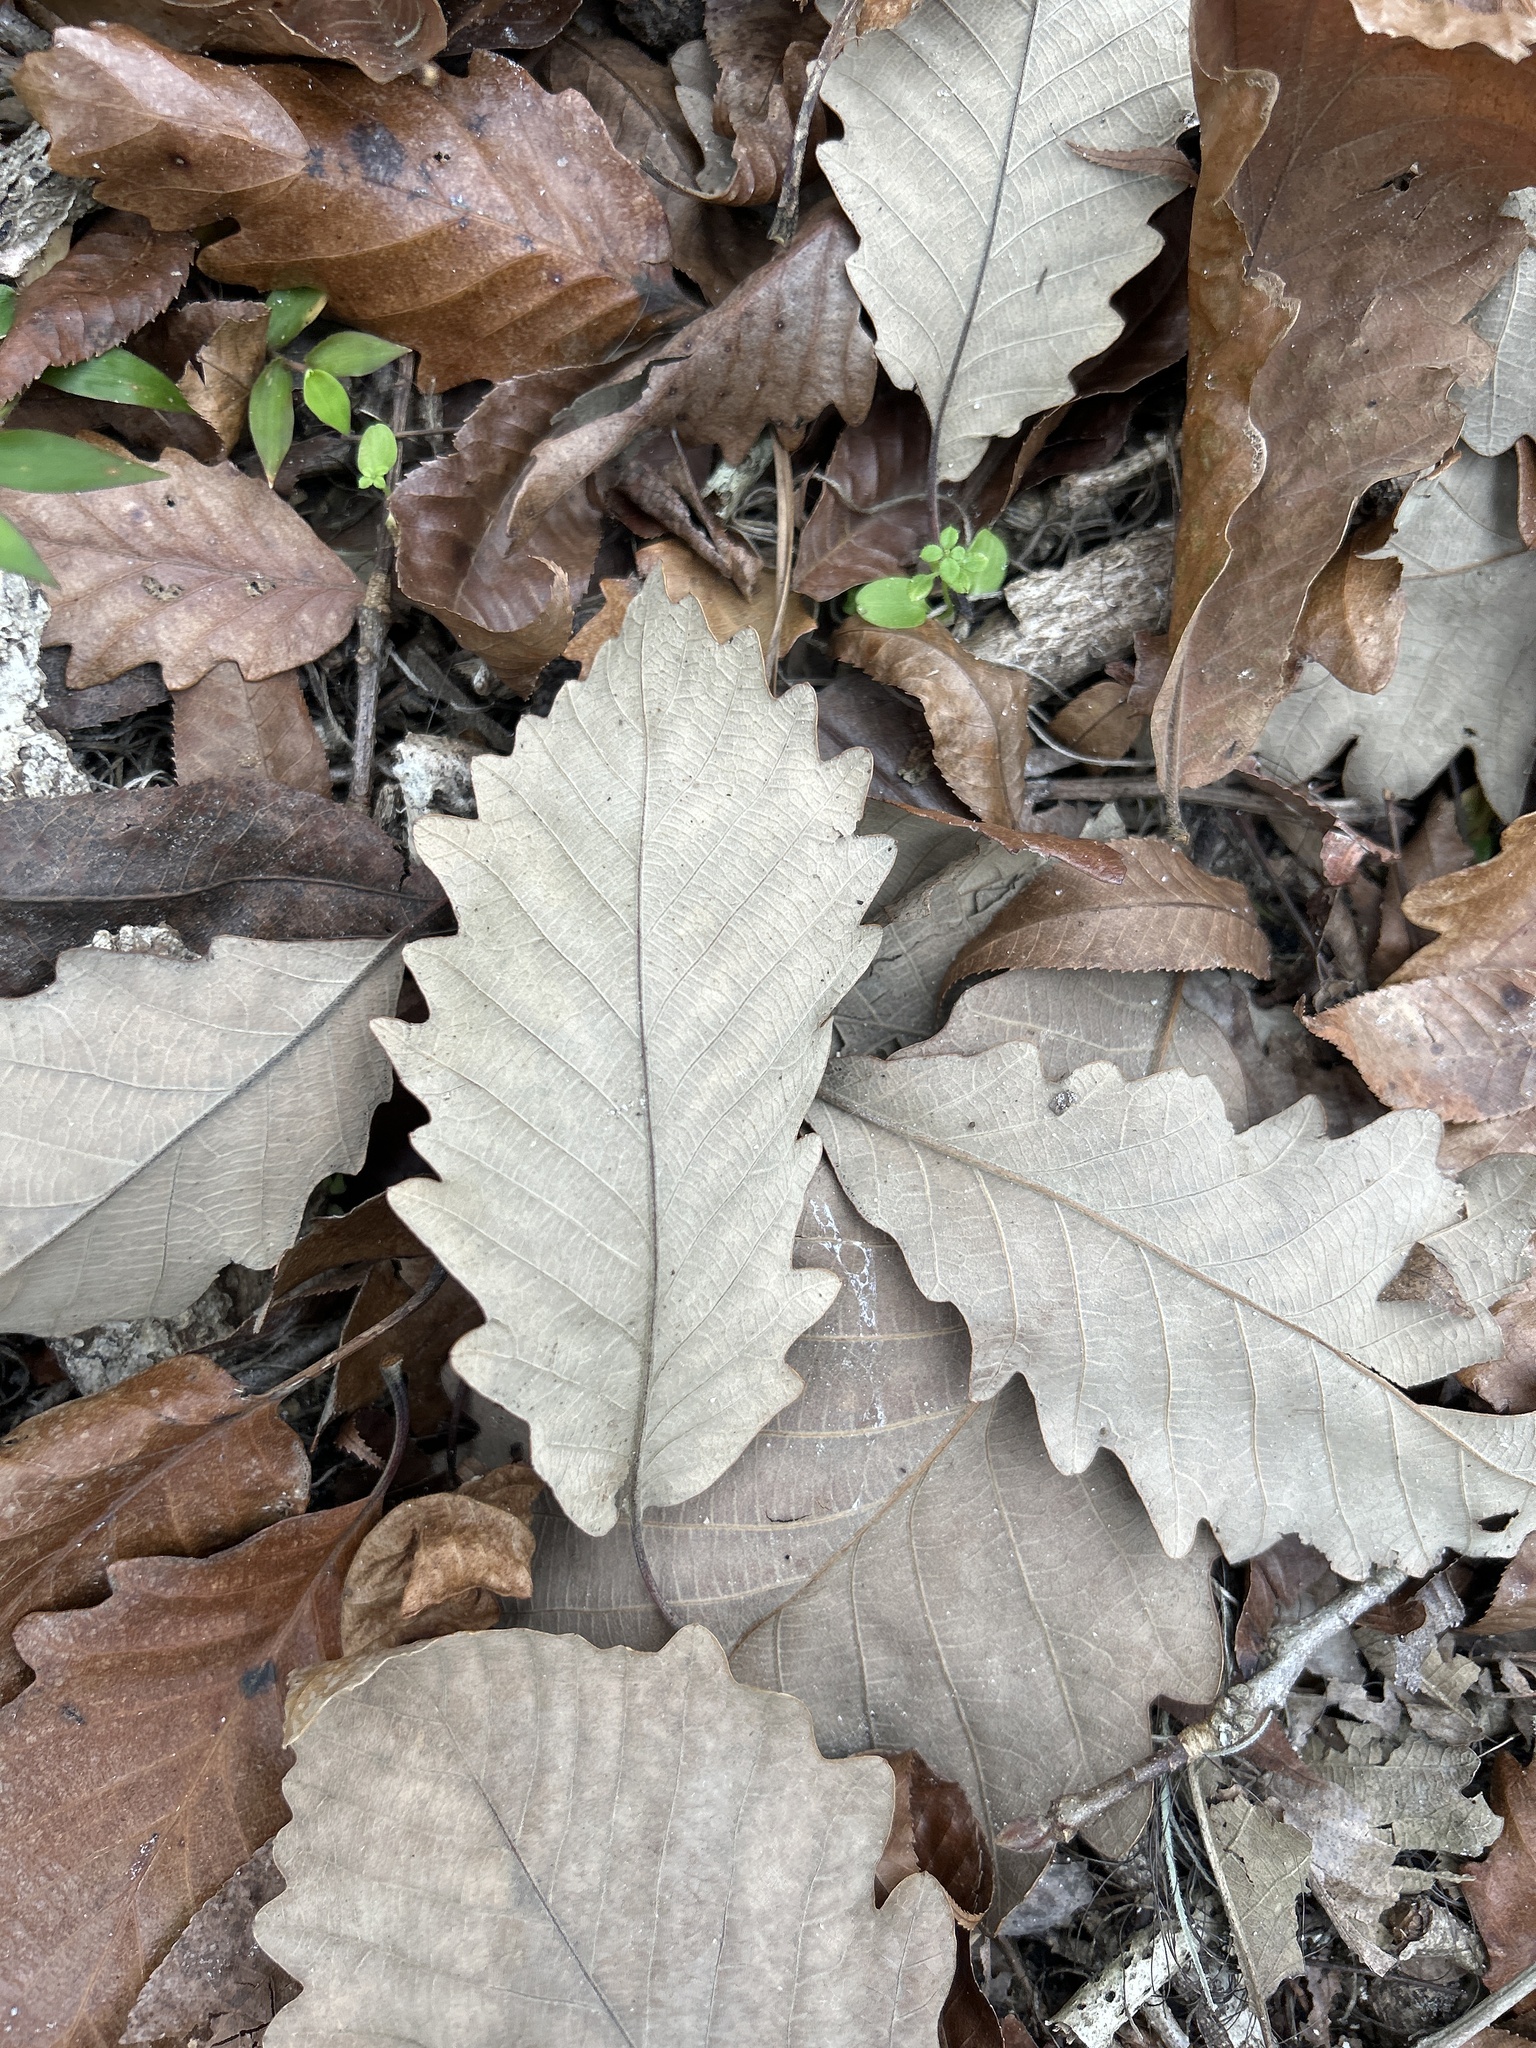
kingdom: Plantae
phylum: Tracheophyta
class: Magnoliopsida
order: Fagales
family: Fagaceae
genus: Quercus
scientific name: Quercus michauxii
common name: Swamp chestnut oak
